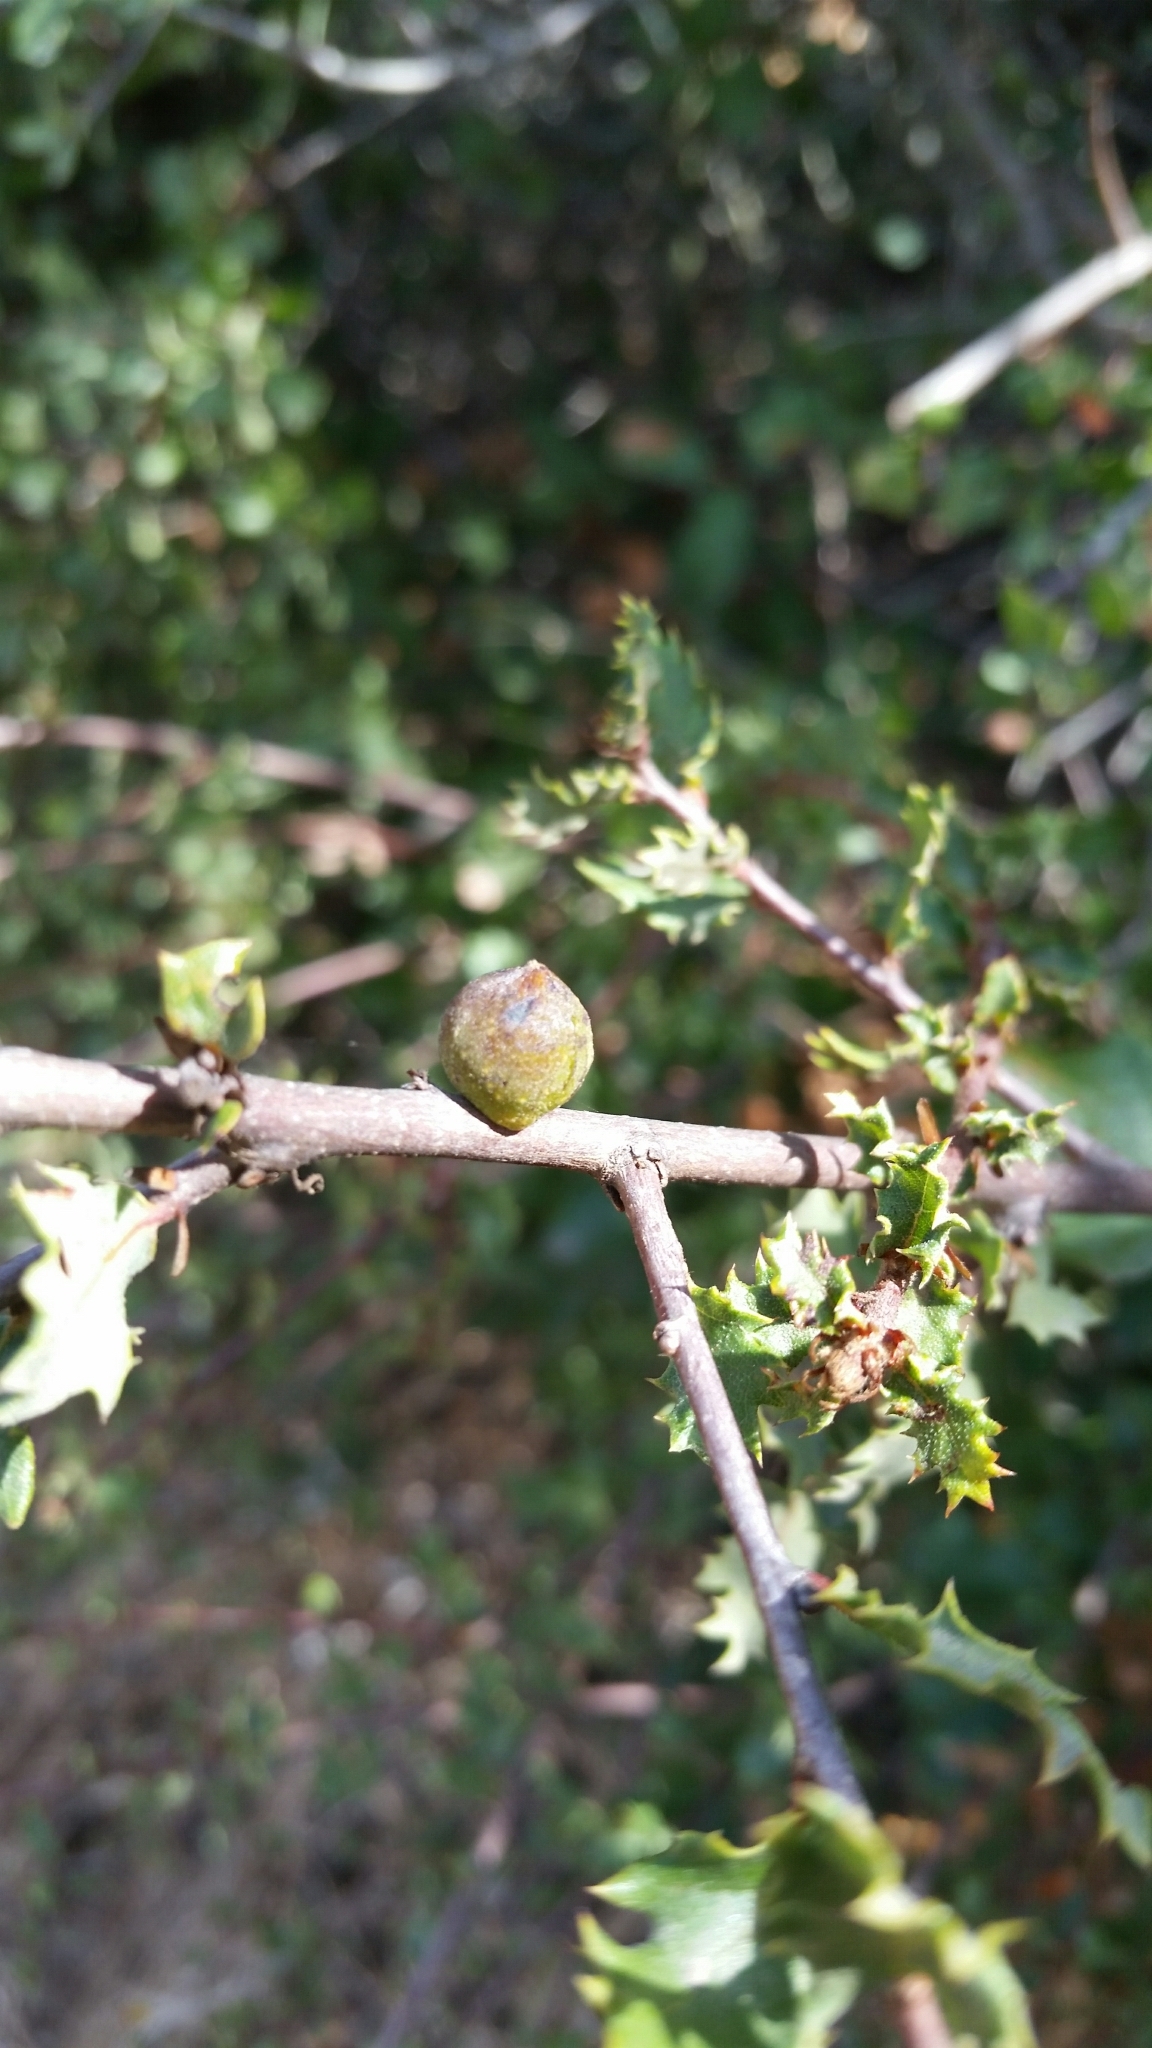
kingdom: Animalia
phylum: Arthropoda
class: Insecta
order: Hymenoptera
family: Cynipidae
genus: Burnettweldia
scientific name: Burnettweldia
